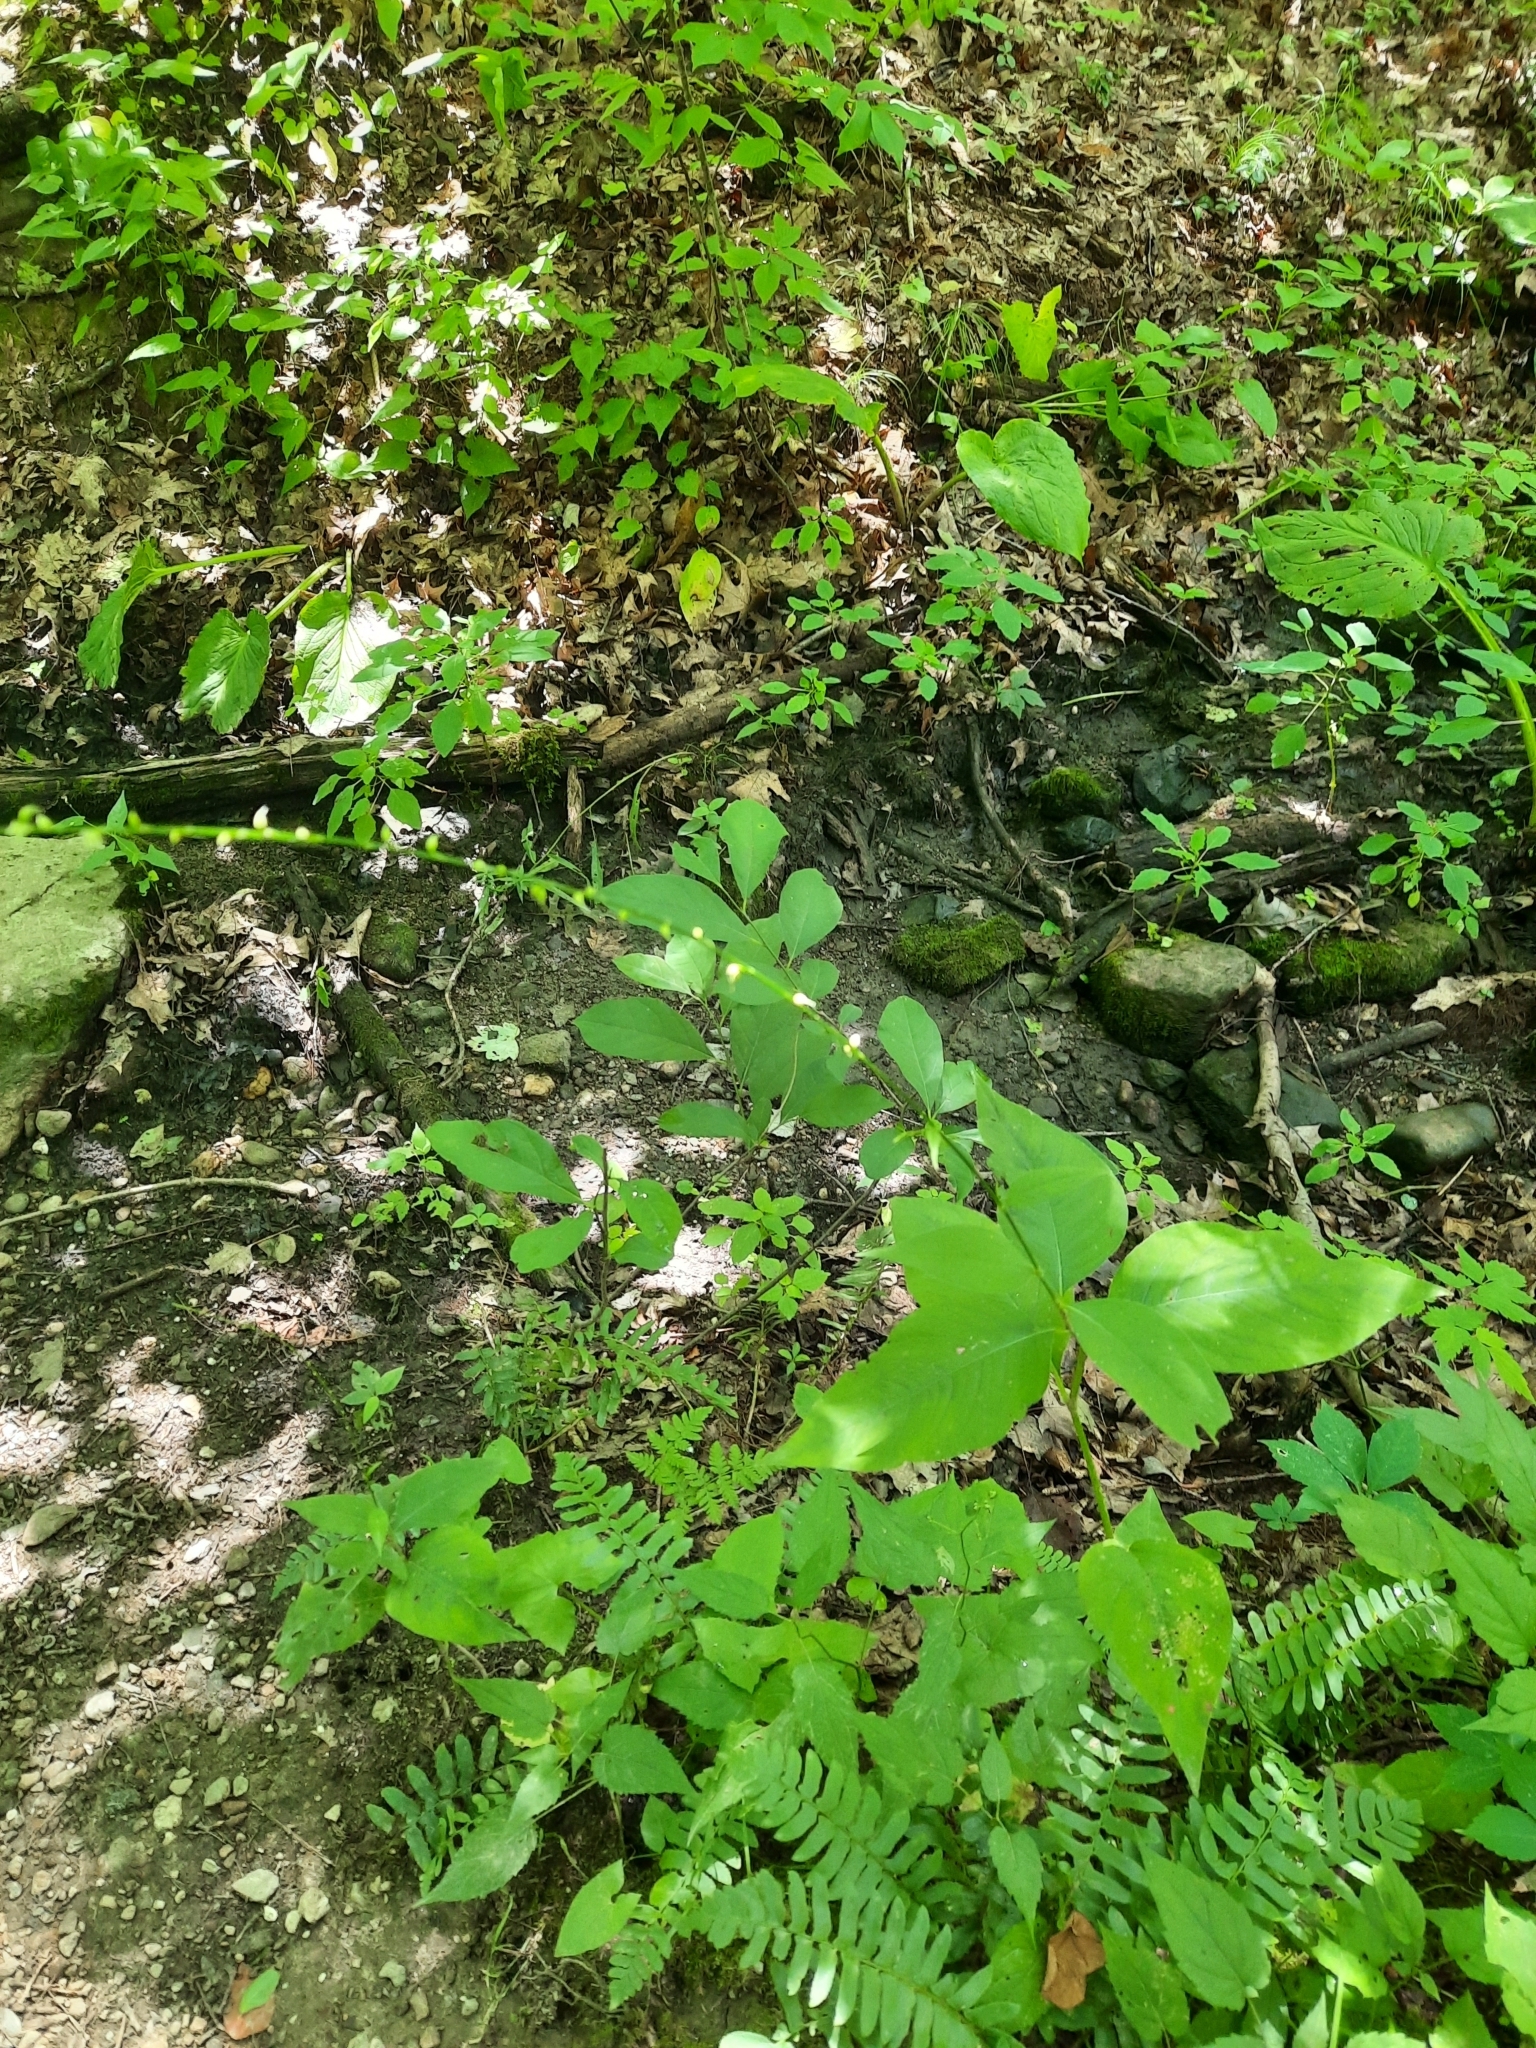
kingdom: Plantae
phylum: Tracheophyta
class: Magnoliopsida
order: Caryophyllales
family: Polygonaceae
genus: Persicaria
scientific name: Persicaria virginiana
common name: Jumpseed
